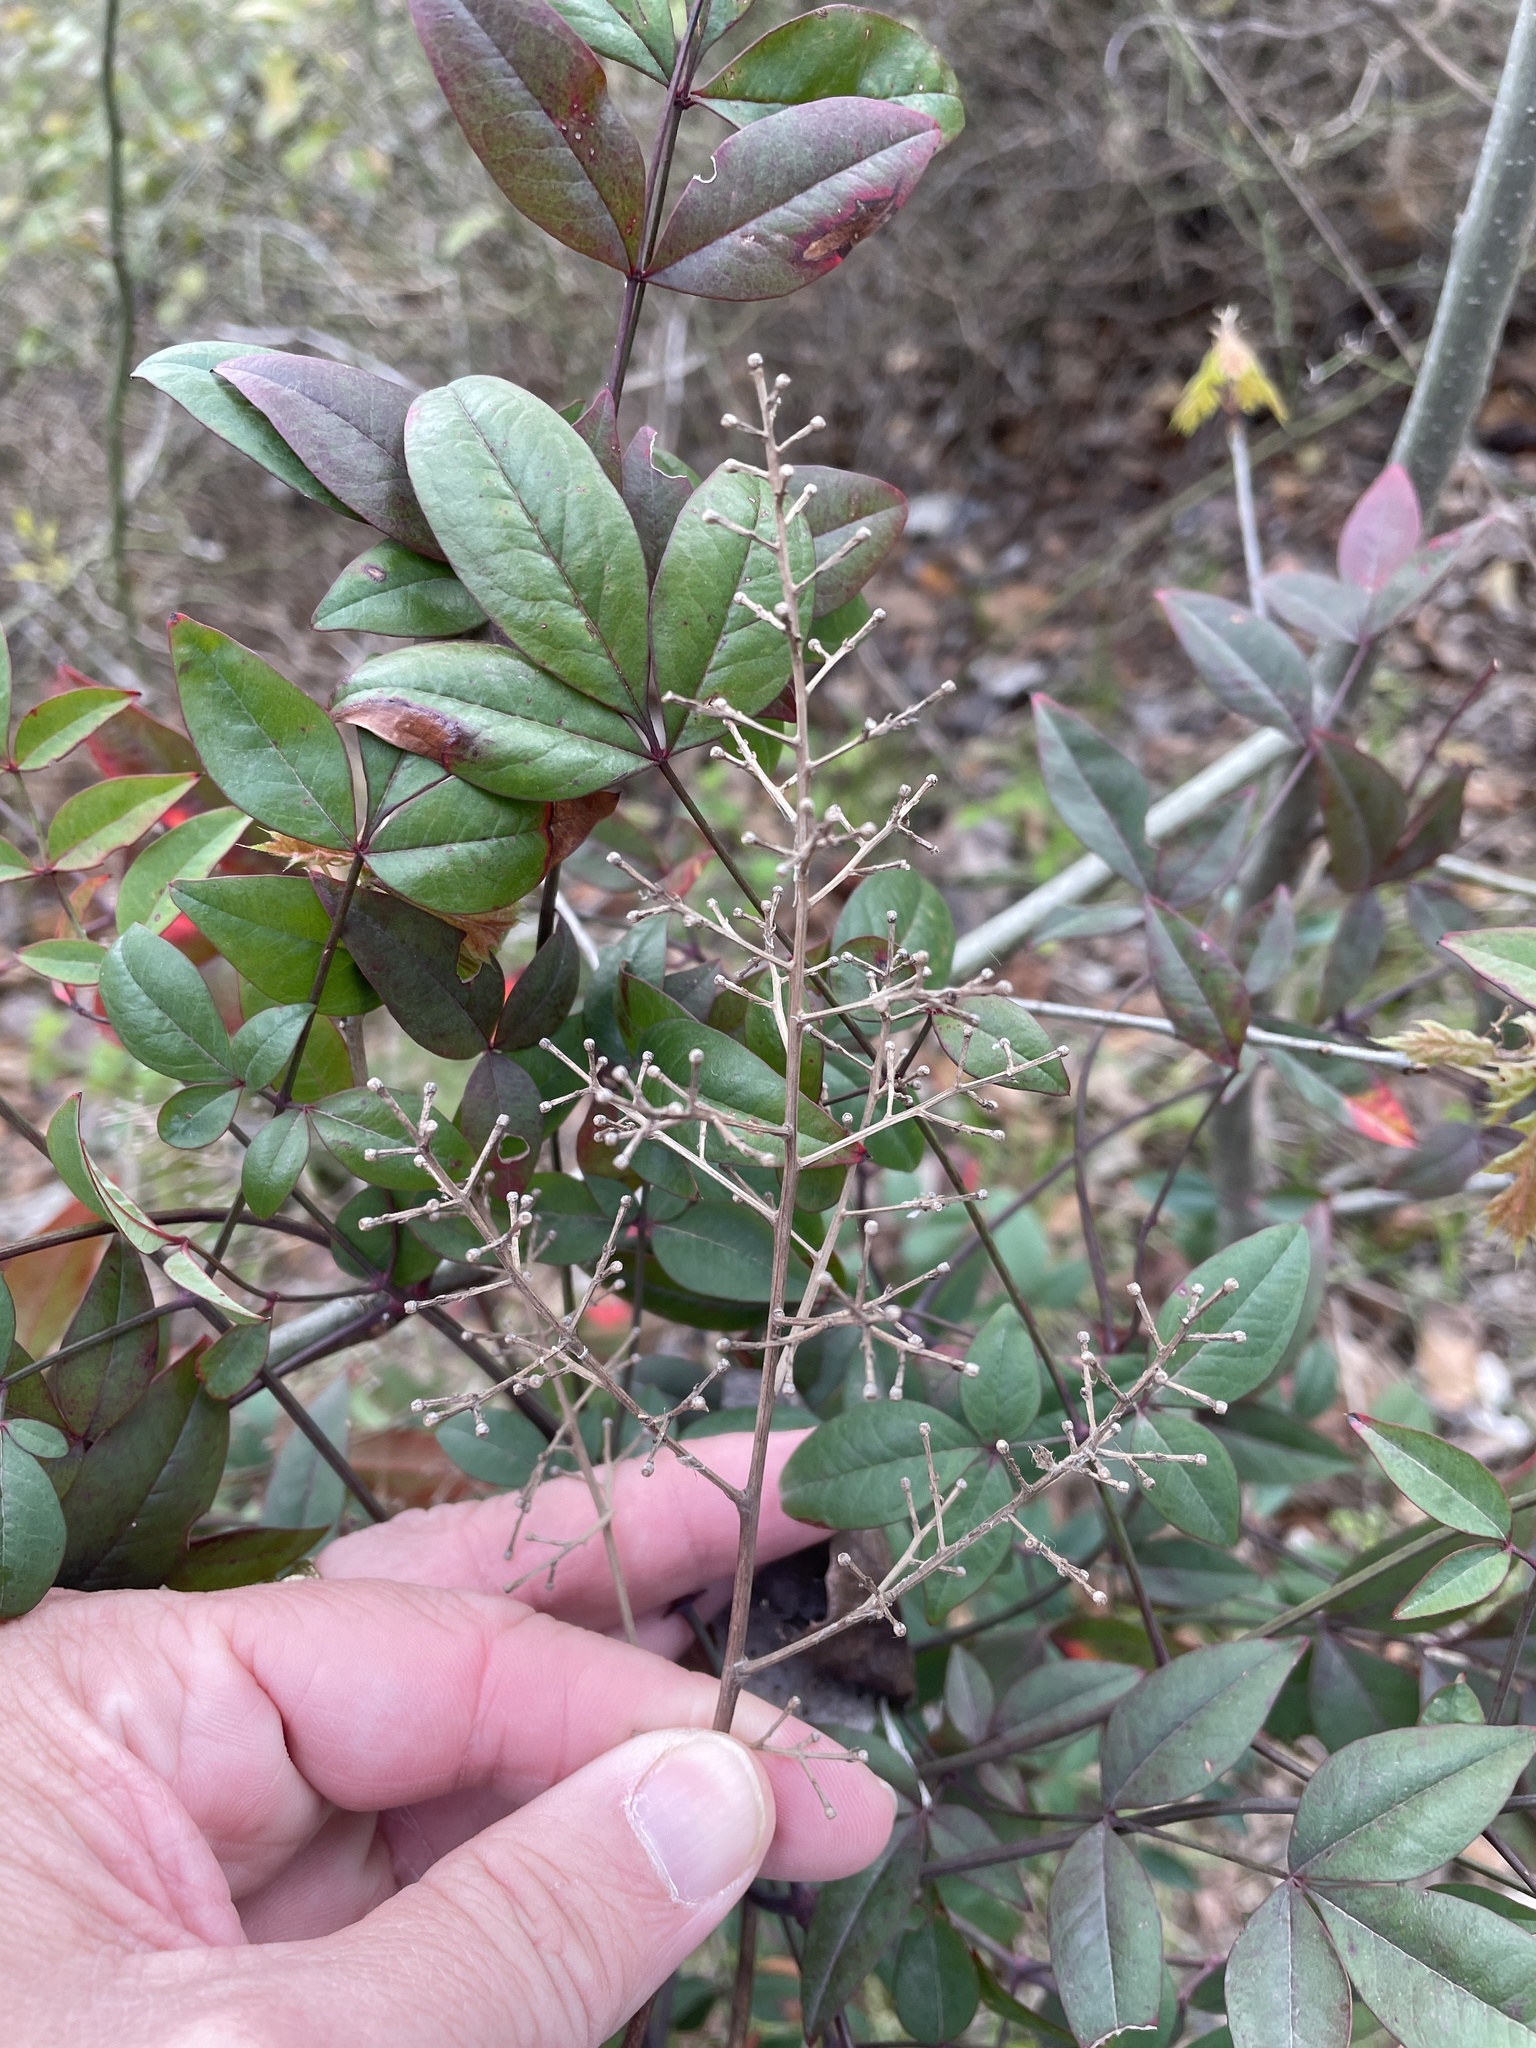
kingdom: Plantae
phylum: Tracheophyta
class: Magnoliopsida
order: Ranunculales
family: Berberidaceae
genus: Nandina
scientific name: Nandina domestica
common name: Sacred bamboo
